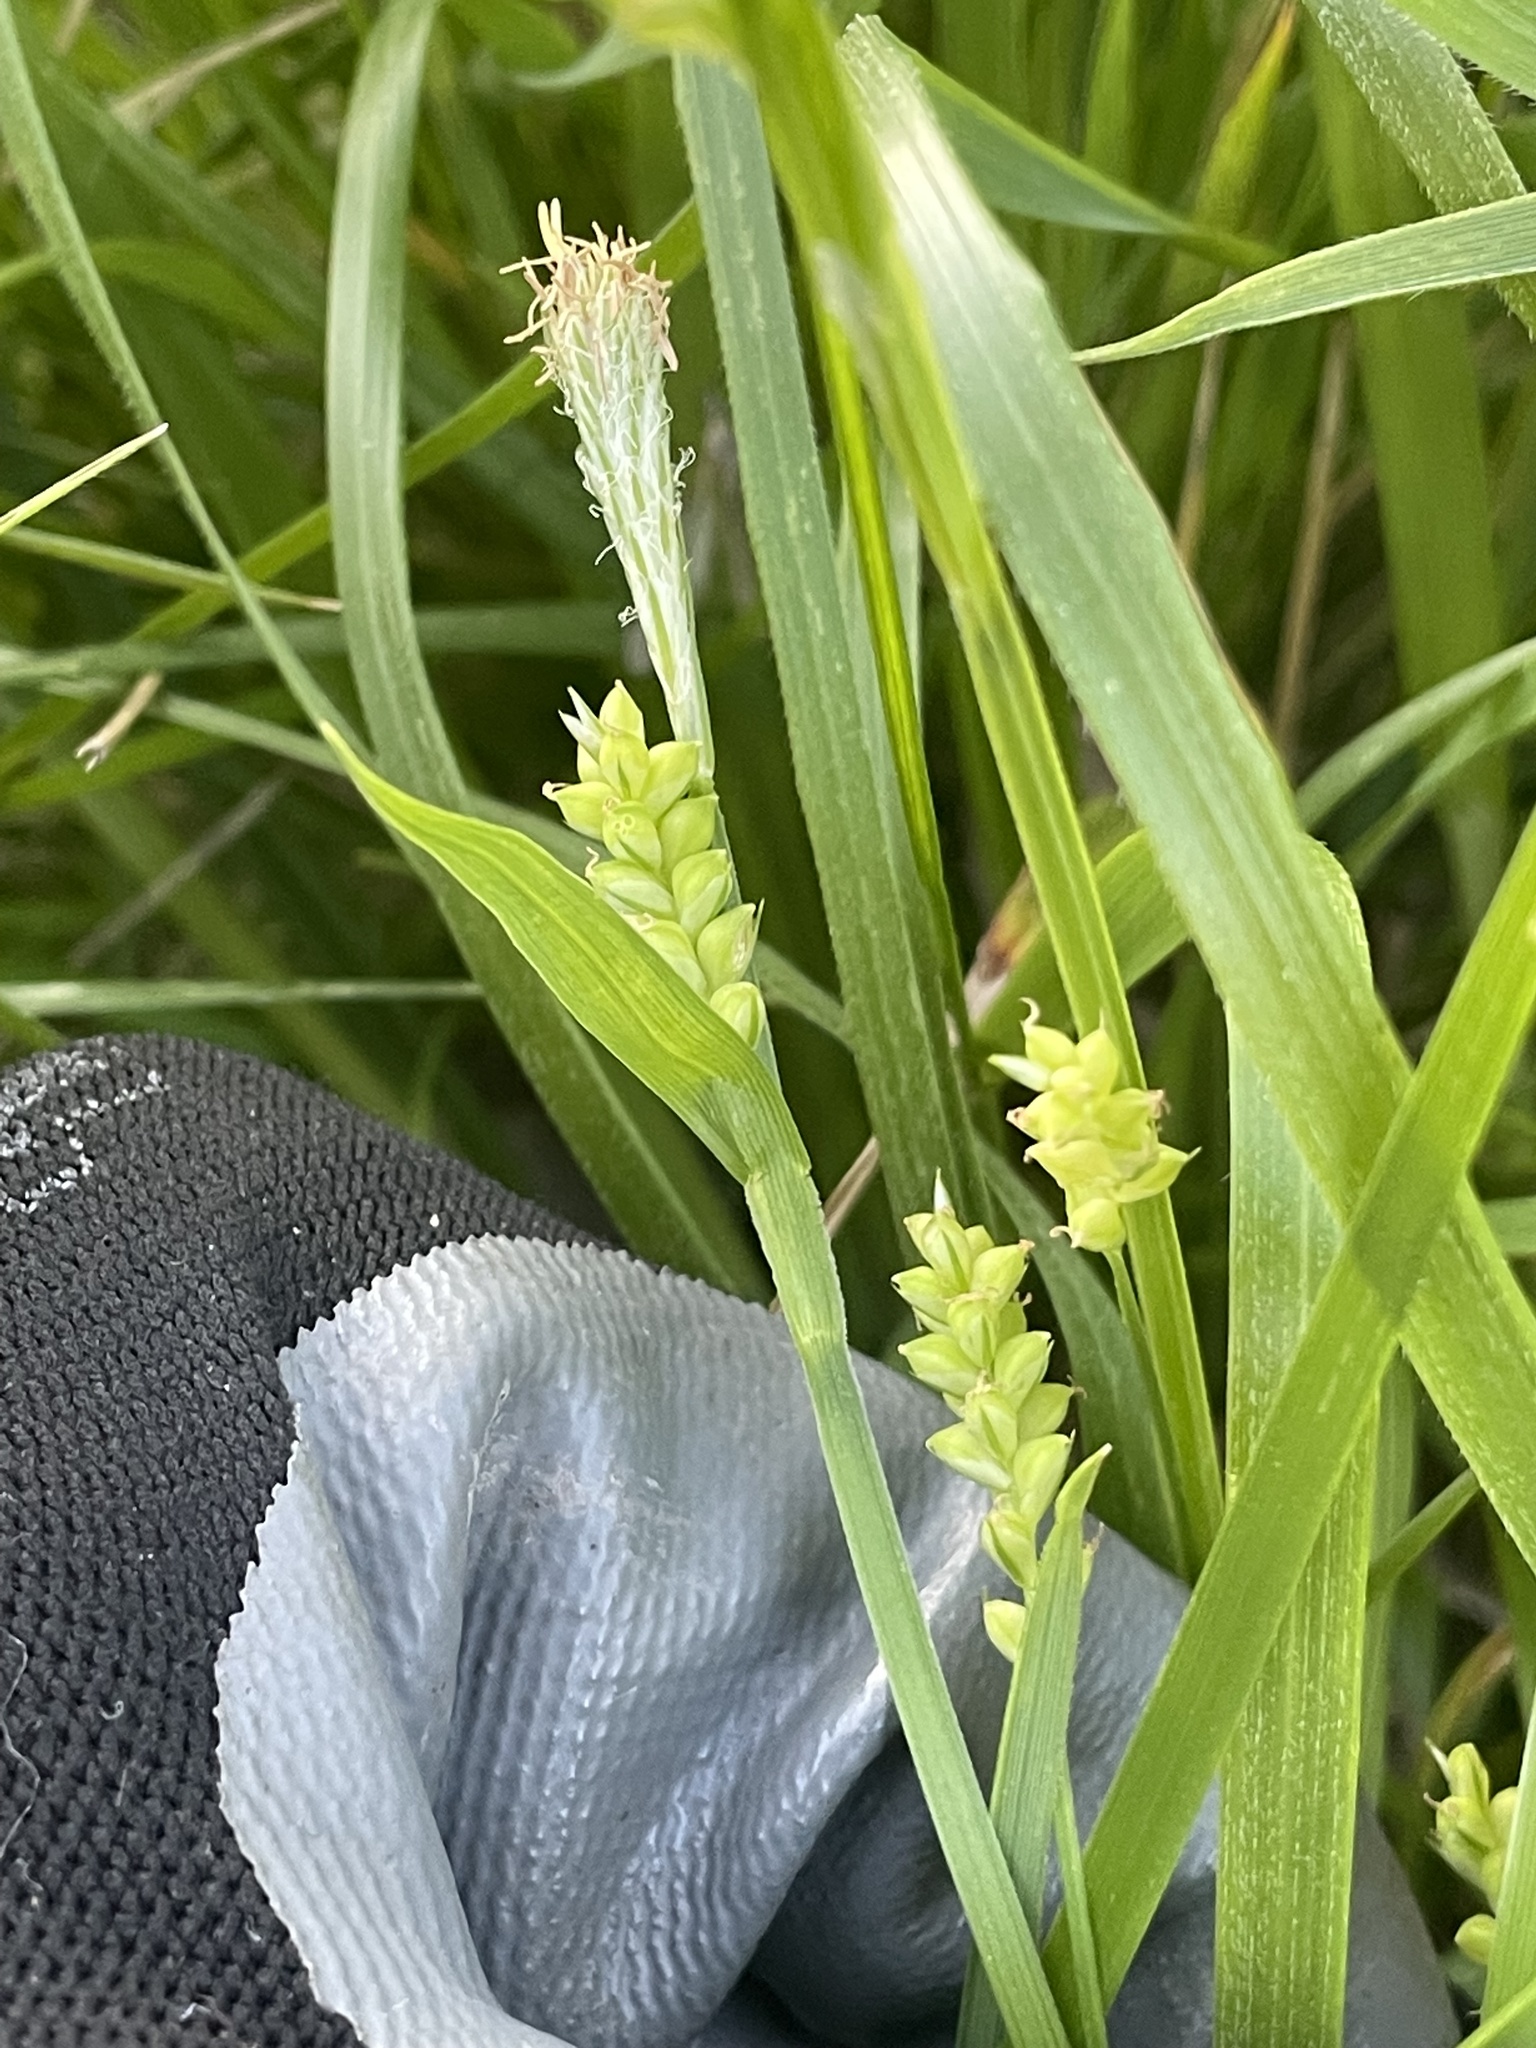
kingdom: Plantae
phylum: Tracheophyta
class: Liliopsida
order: Poales
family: Cyperaceae
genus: Carex
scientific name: Carex blanda
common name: Bland sedge
